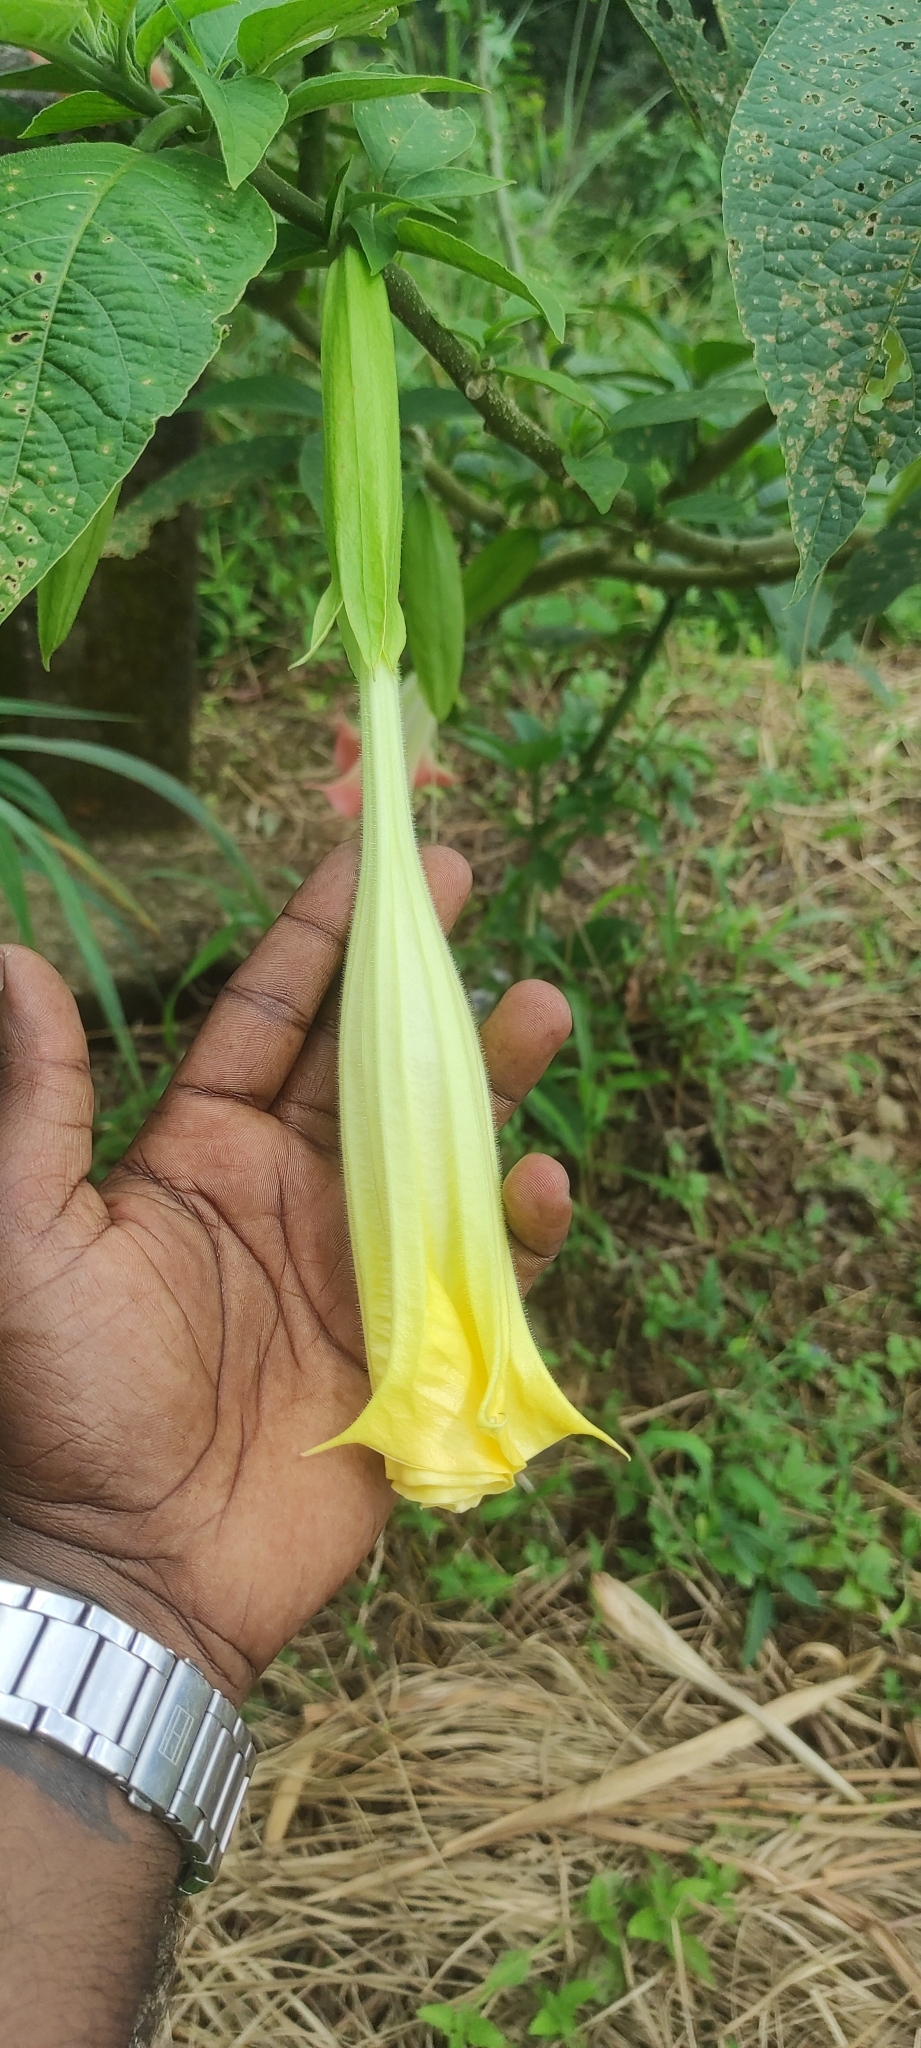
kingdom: Plantae
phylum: Tracheophyta
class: Magnoliopsida
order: Solanales
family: Solanaceae
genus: Brugmansia
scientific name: Brugmansia arborea
